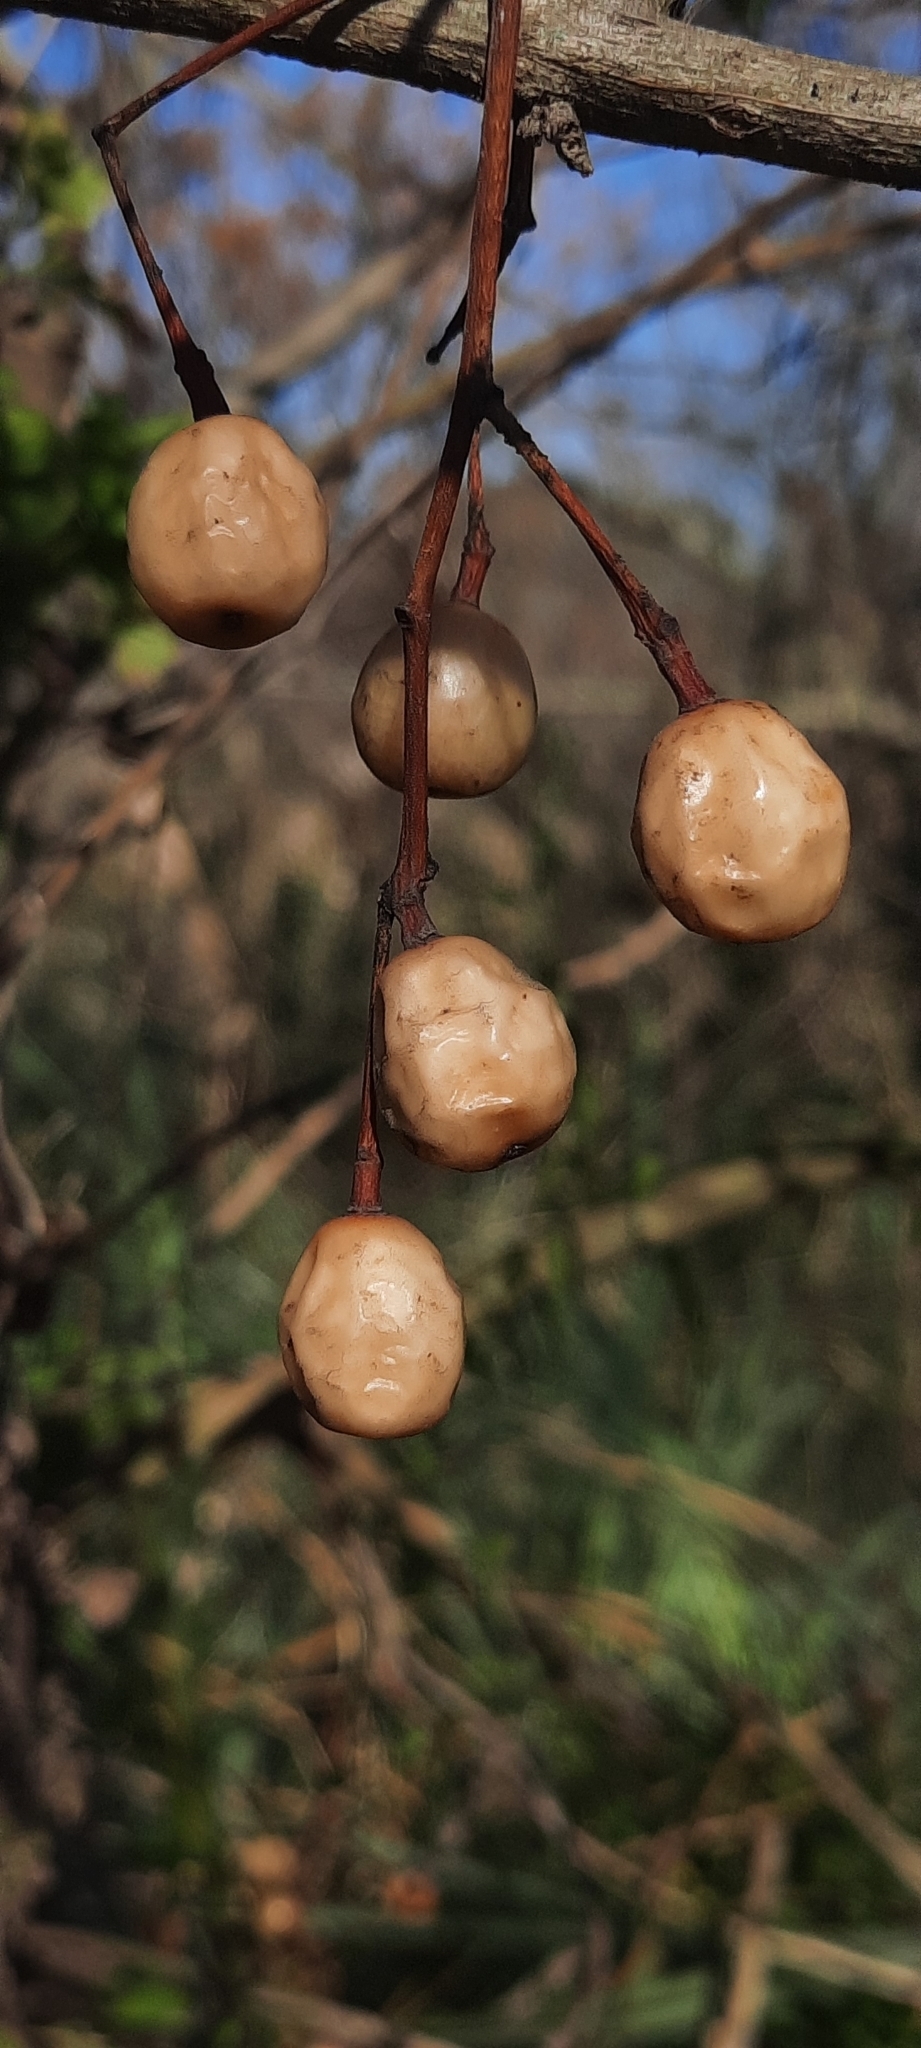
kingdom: Plantae
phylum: Tracheophyta
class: Magnoliopsida
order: Sapindales
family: Meliaceae
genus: Melia
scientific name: Melia azedarach
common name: Chinaberrytree
